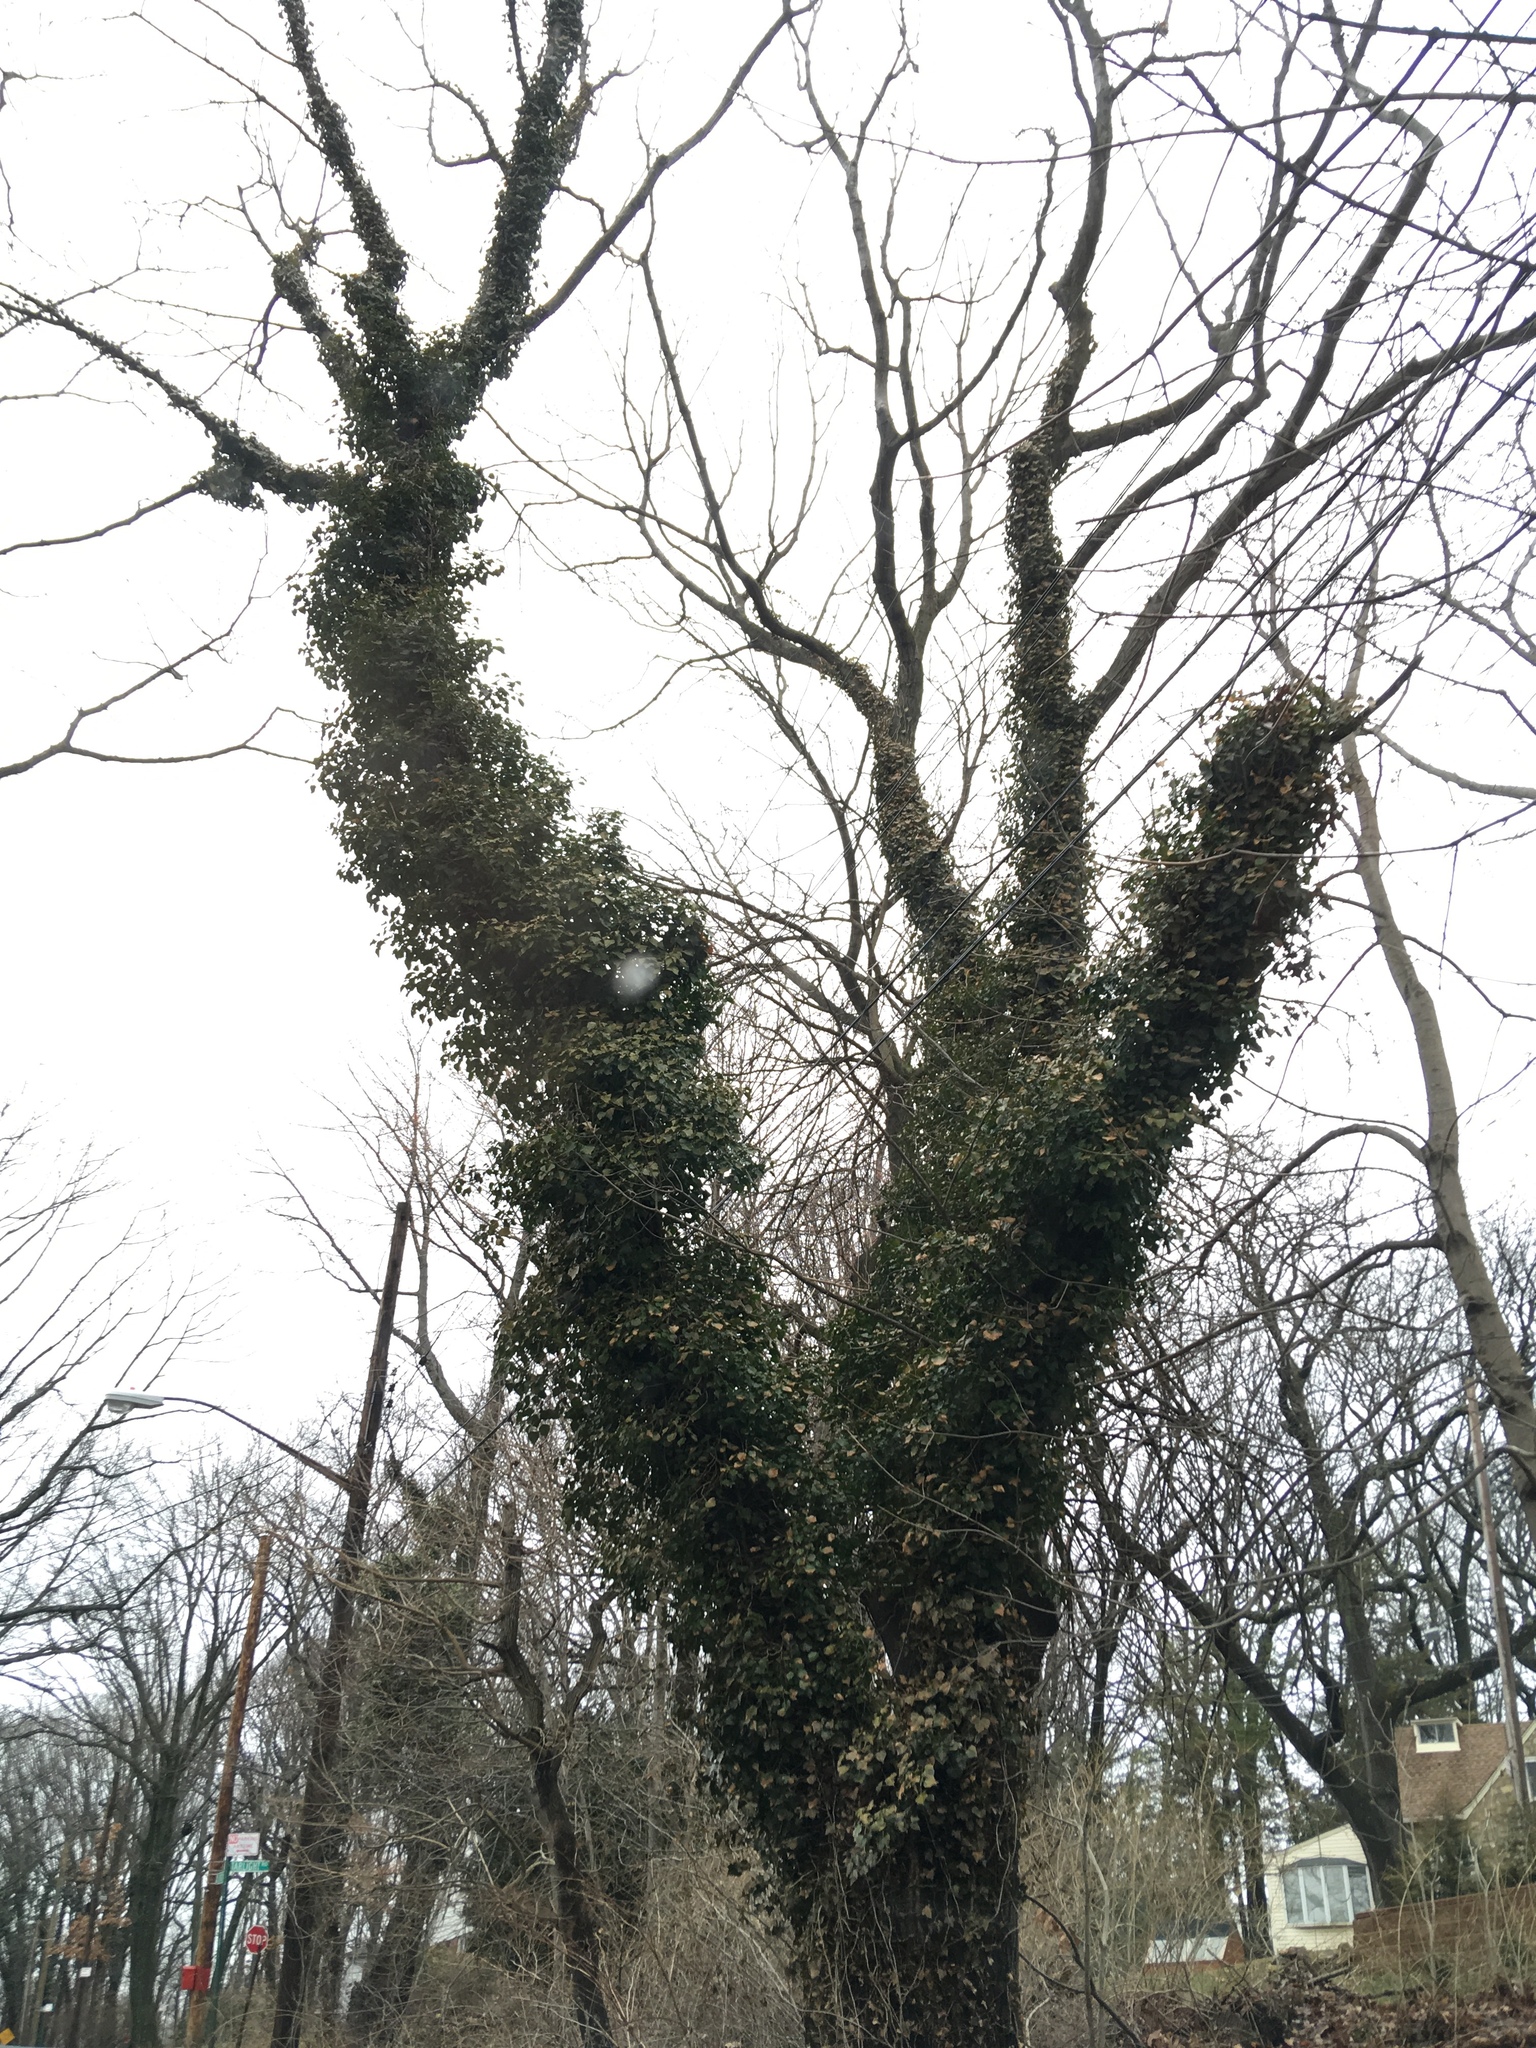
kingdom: Plantae
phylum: Tracheophyta
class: Magnoliopsida
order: Apiales
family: Araliaceae
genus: Hedera
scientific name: Hedera helix
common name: Ivy
